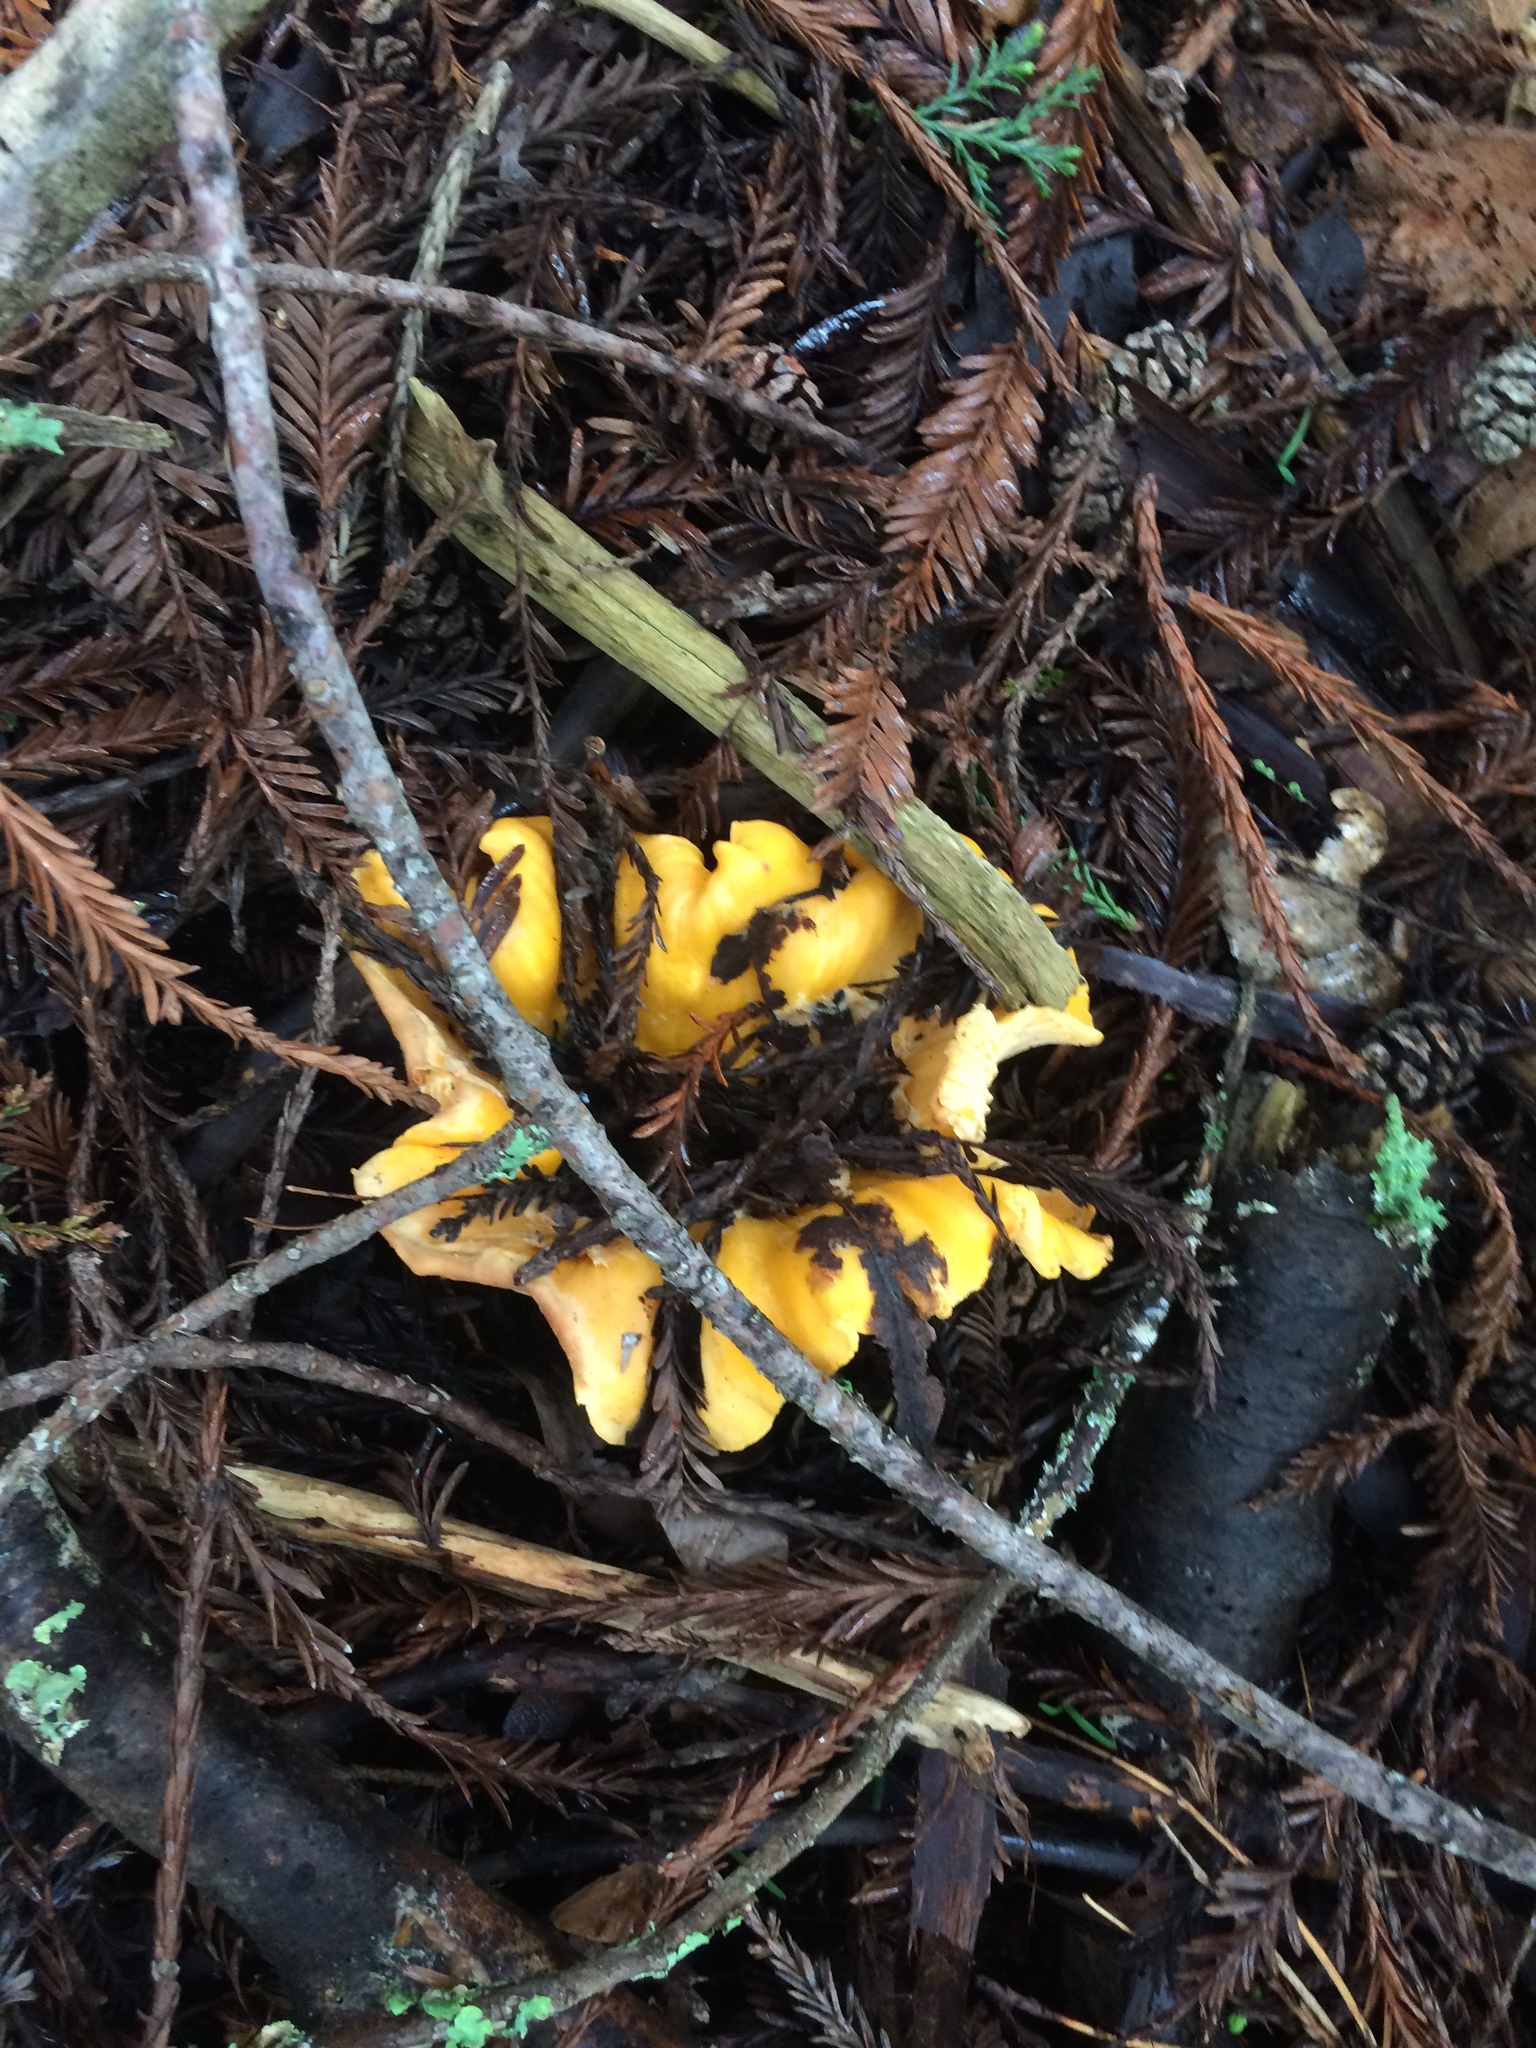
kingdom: Fungi
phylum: Basidiomycota
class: Agaricomycetes
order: Cantharellales
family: Hydnaceae
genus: Cantharellus
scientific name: Cantharellus californicus
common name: California golden chanterelle
